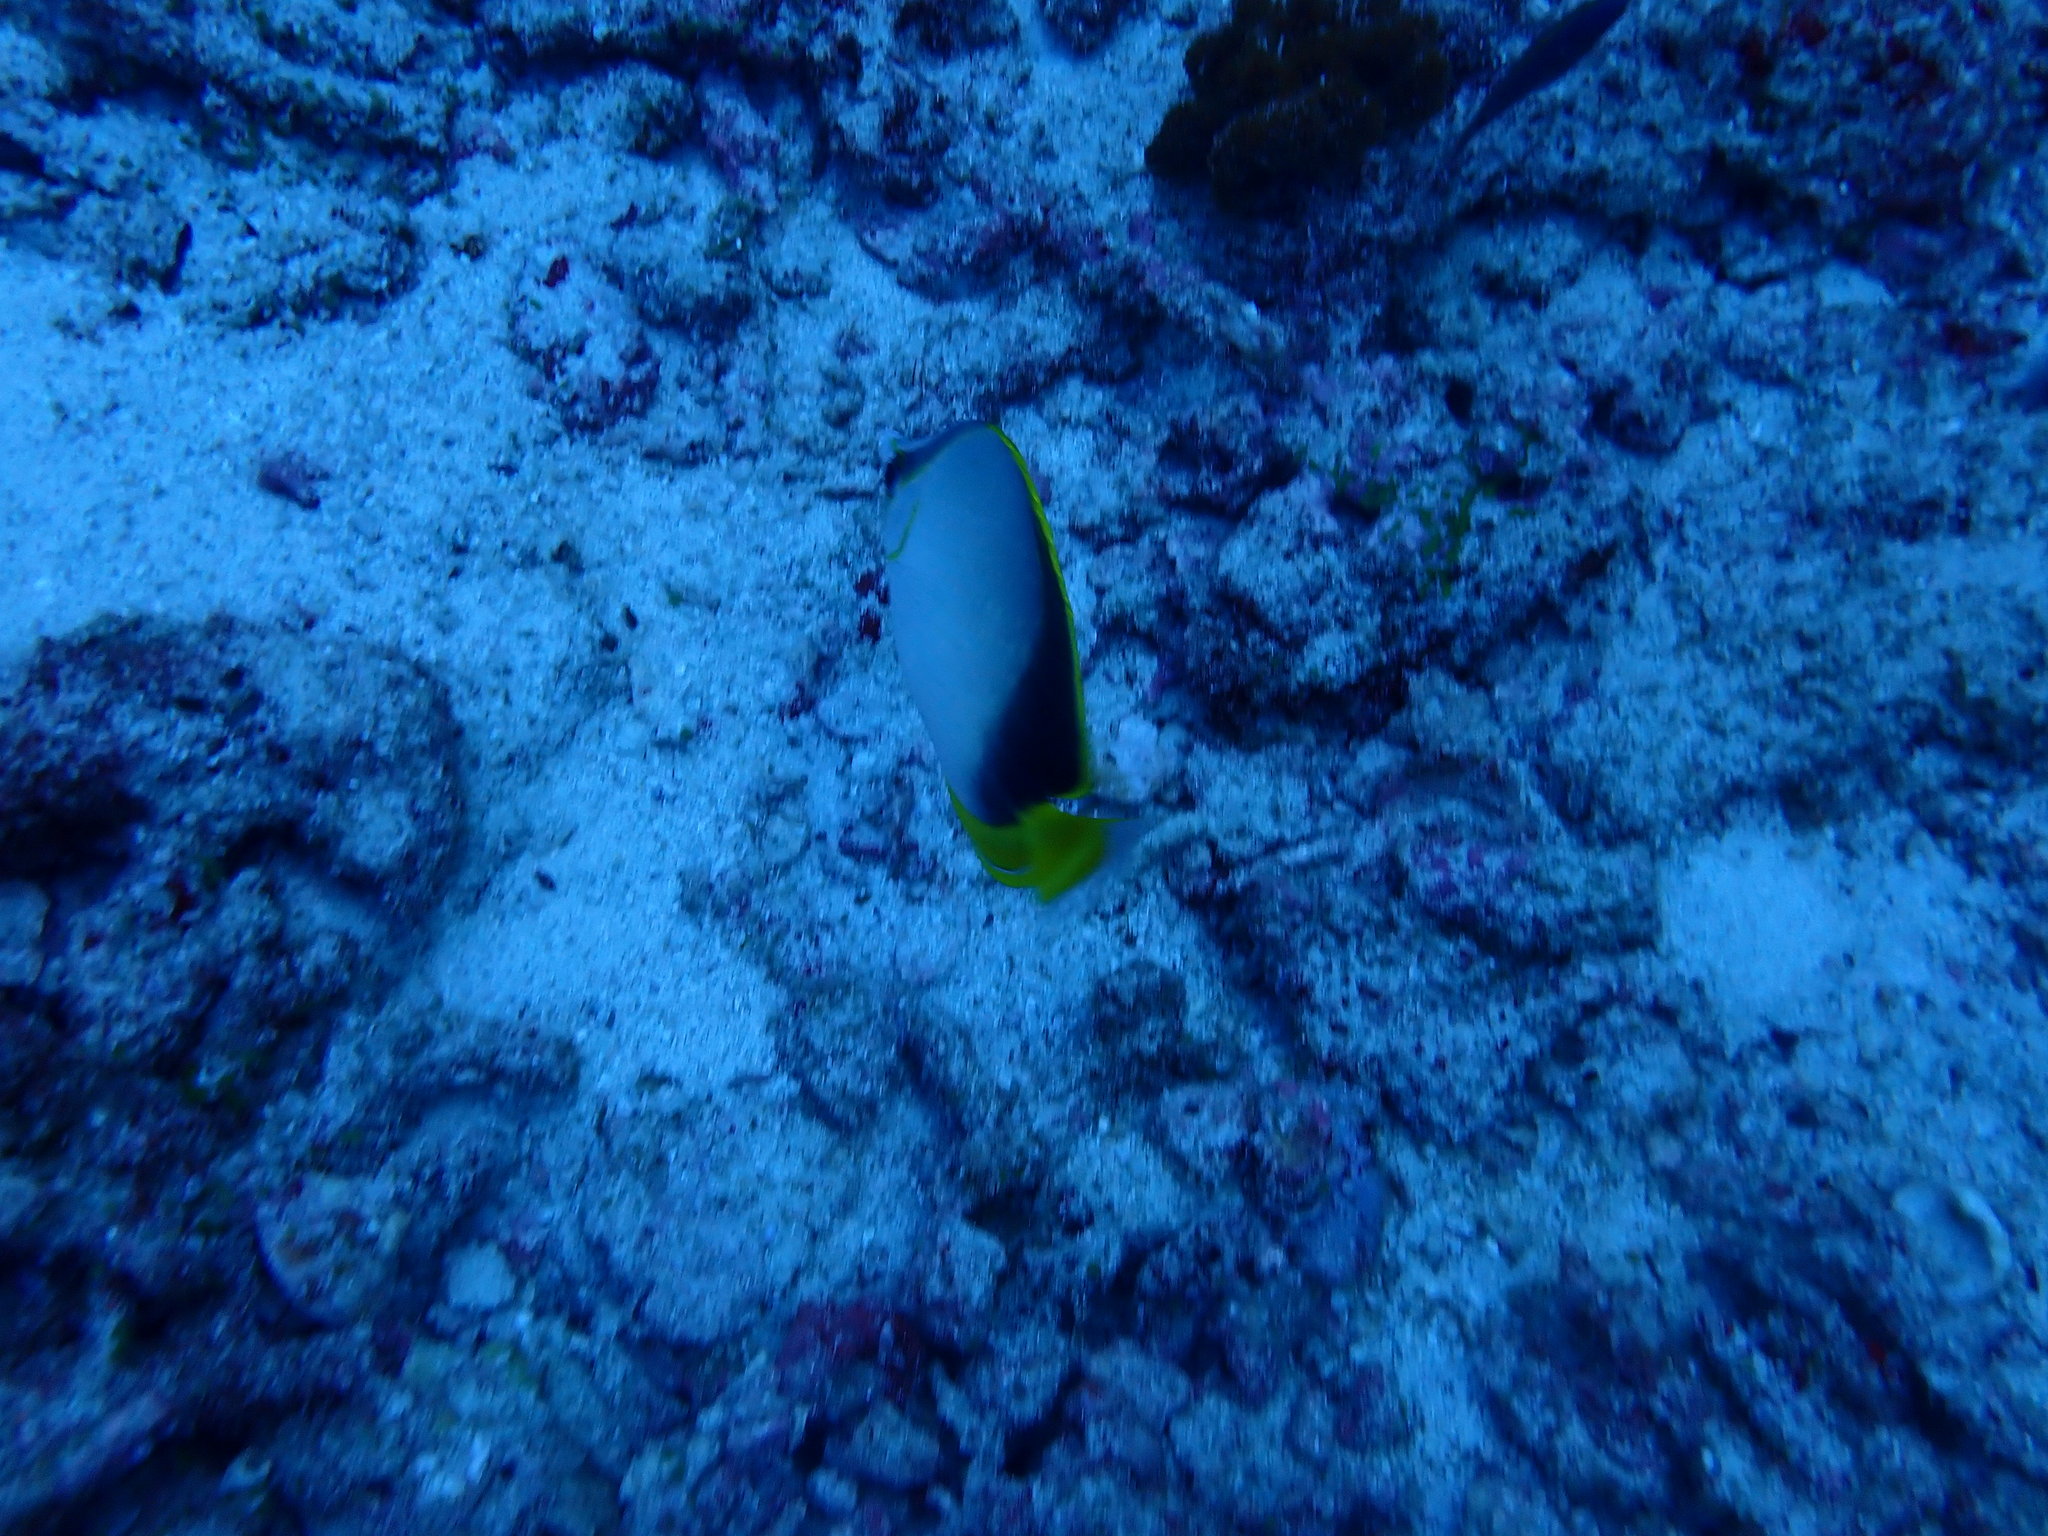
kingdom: Animalia
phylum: Chordata
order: Perciformes
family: Chaetodontidae
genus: Chaetodon
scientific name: Chaetodon gardineri
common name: Gardiner's butterflyfish
